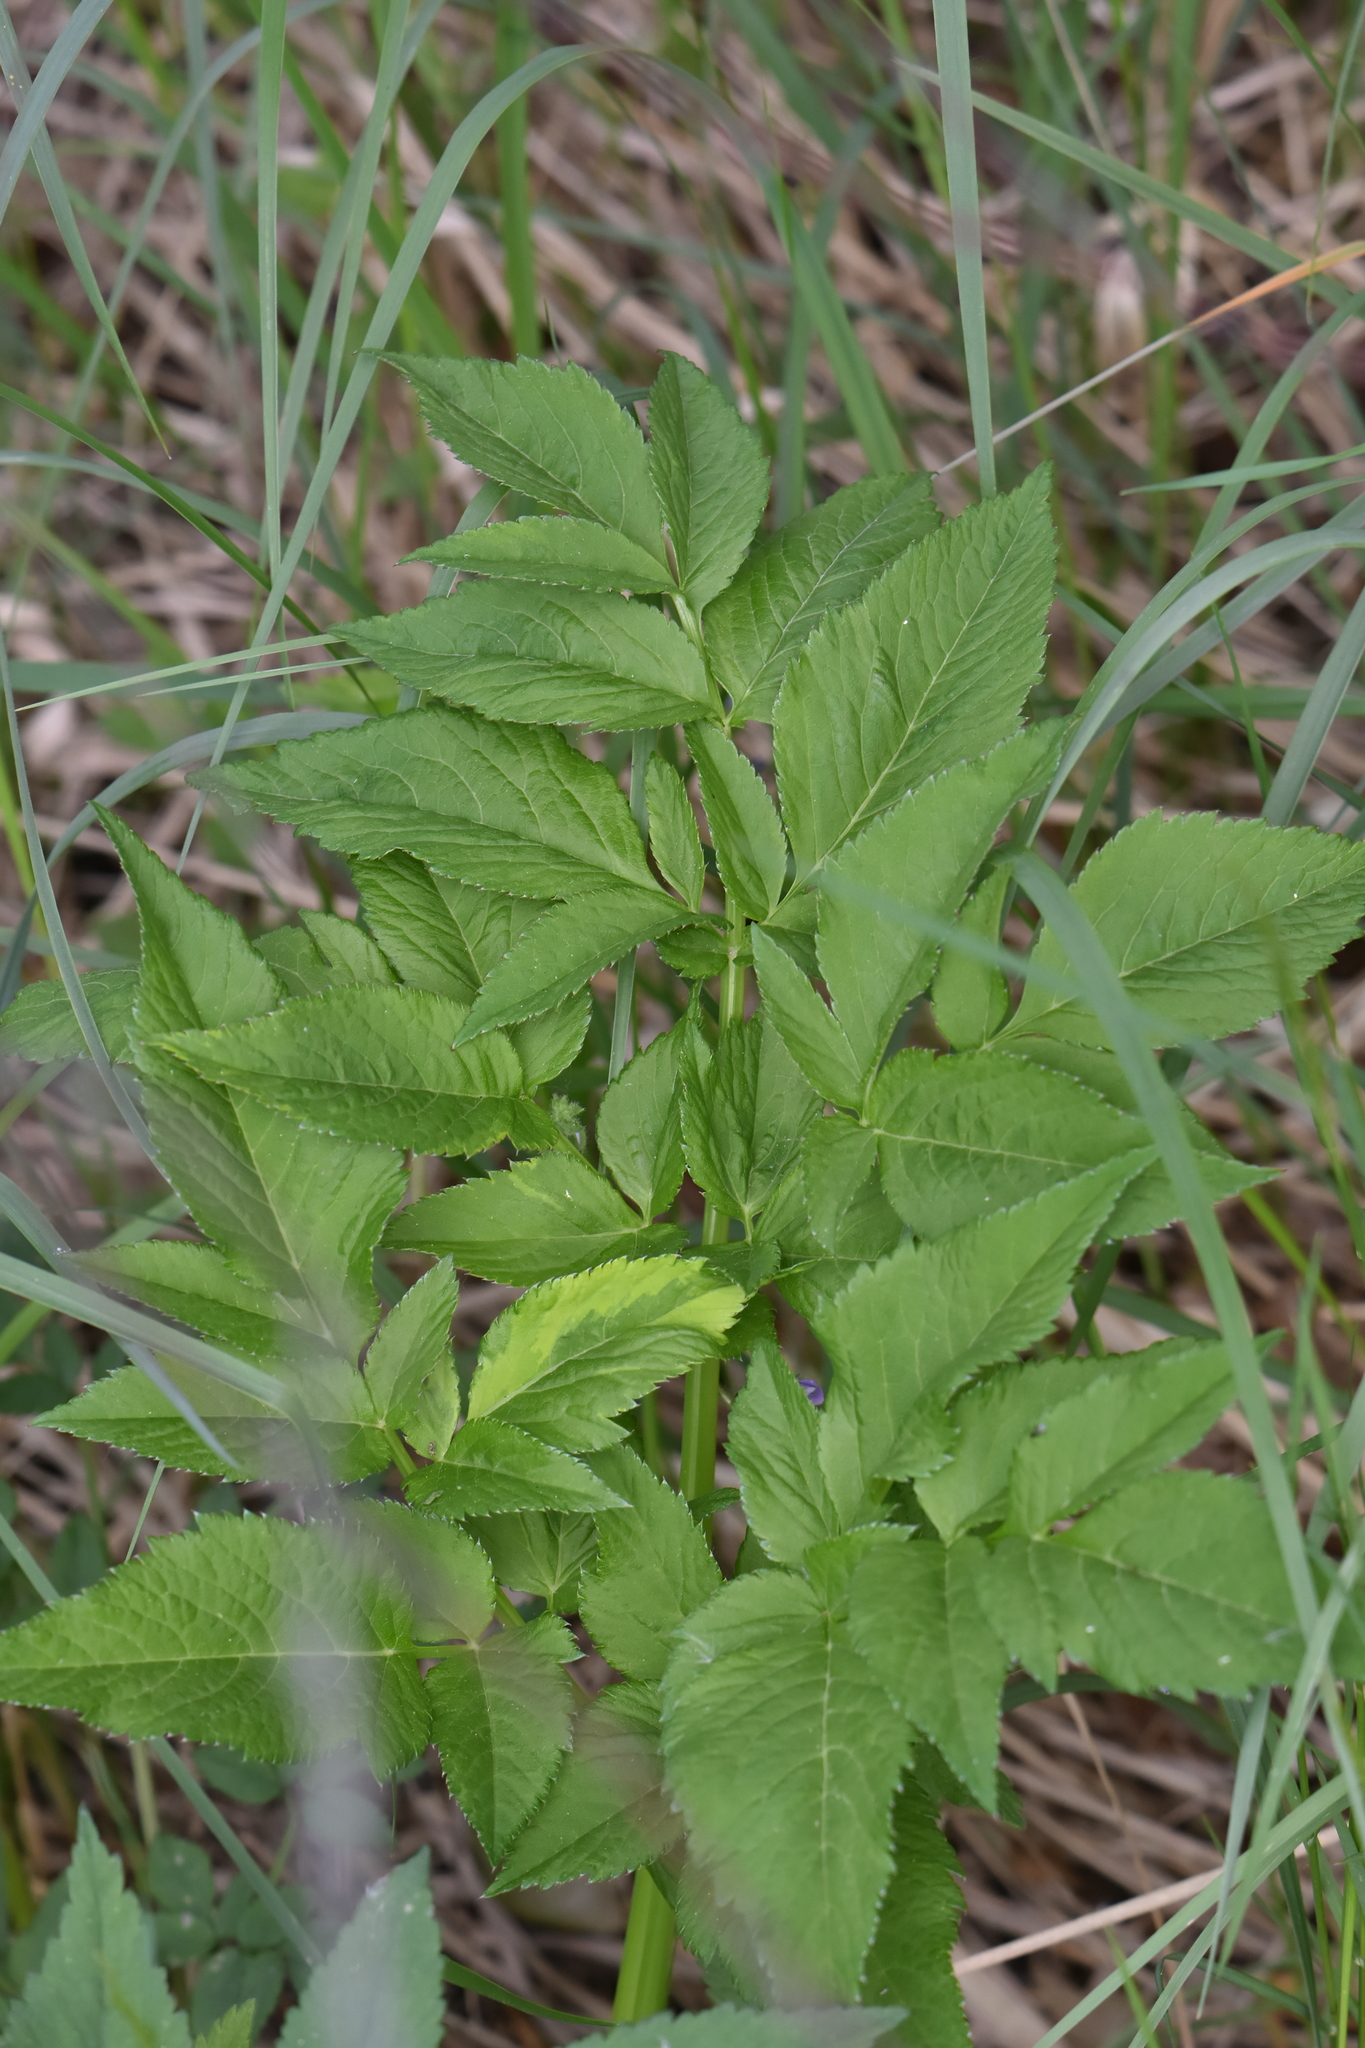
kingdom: Plantae
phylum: Tracheophyta
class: Magnoliopsida
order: Apiales
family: Apiaceae
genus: Angelica
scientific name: Angelica archangelica
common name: Garden angelica
